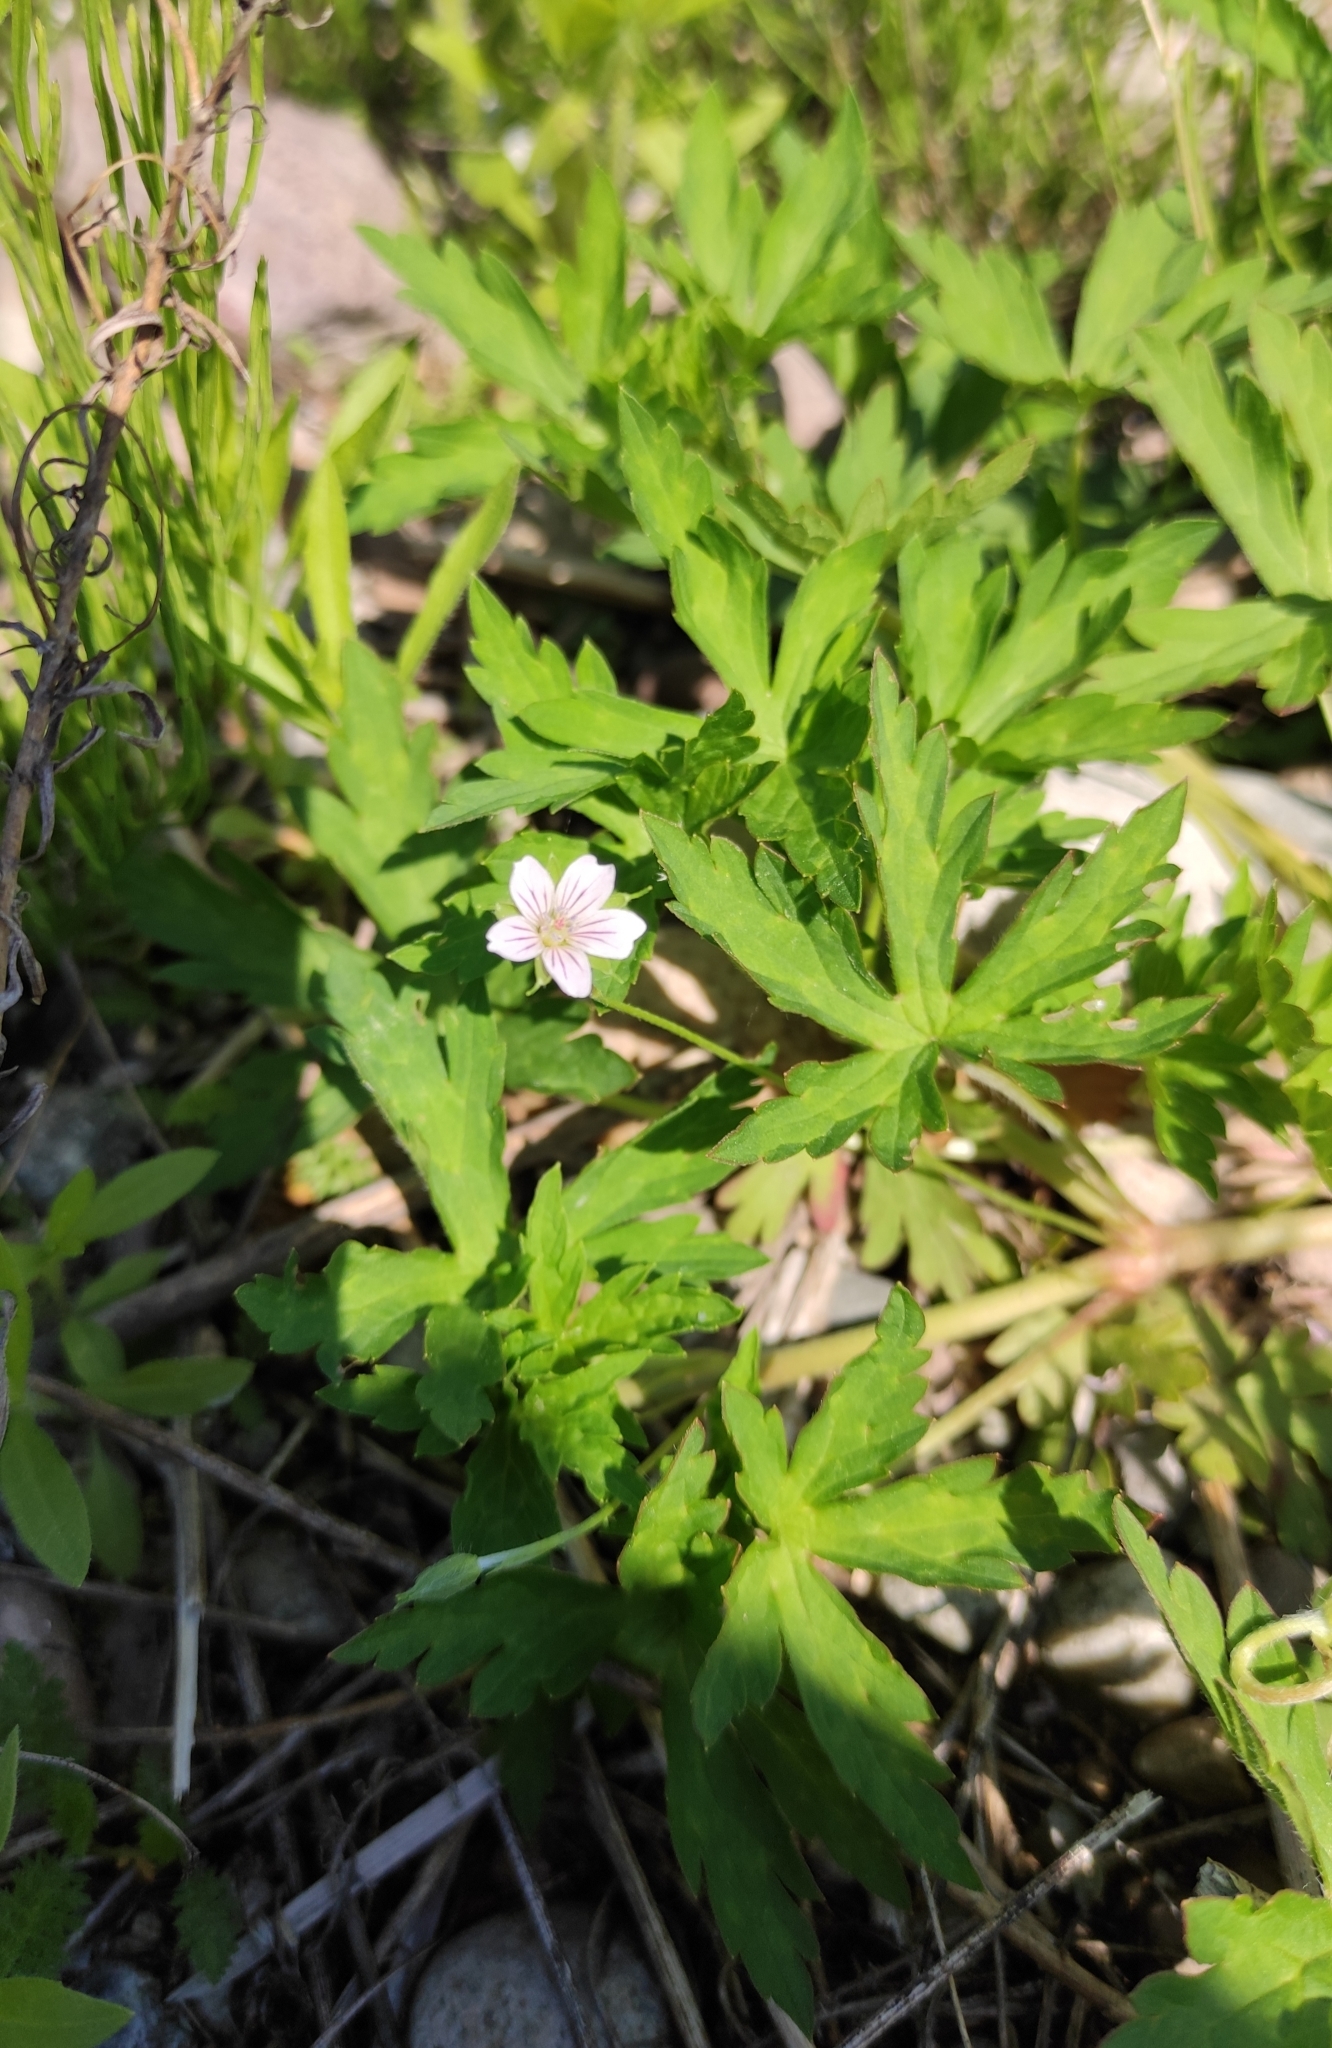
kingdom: Plantae
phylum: Tracheophyta
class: Magnoliopsida
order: Geraniales
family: Geraniaceae
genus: Geranium
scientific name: Geranium sibiricum
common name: Siberian crane's-bill
